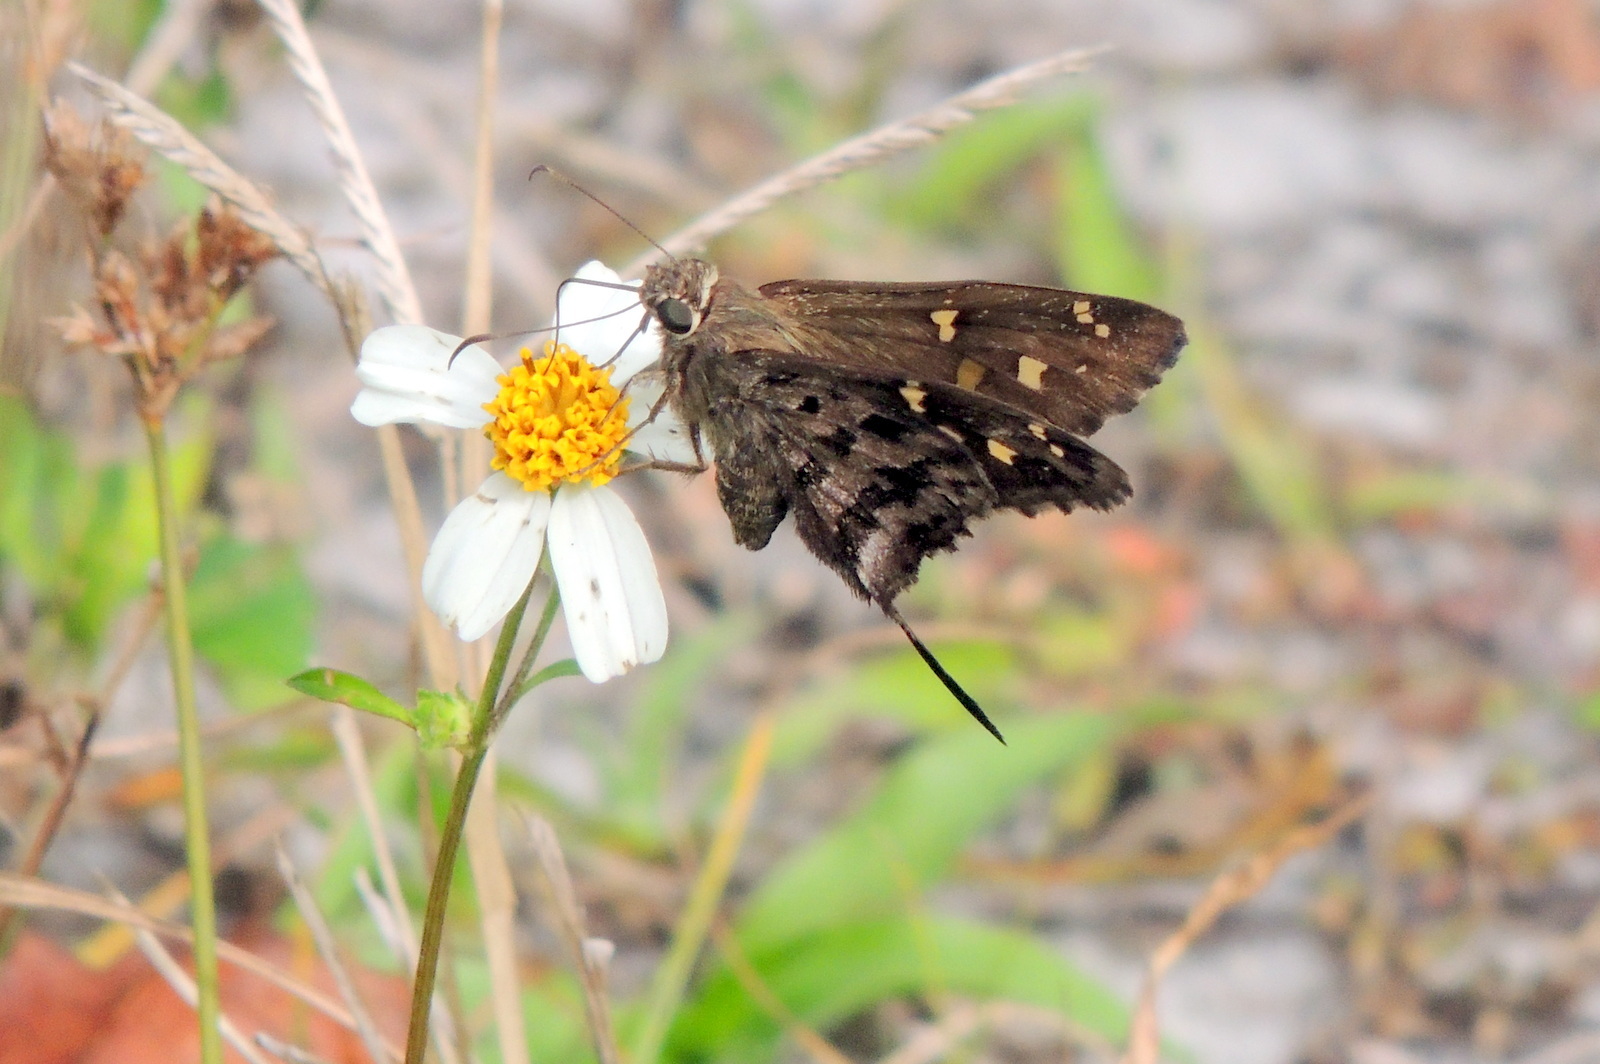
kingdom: Animalia
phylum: Arthropoda
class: Insecta
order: Lepidoptera
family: Hesperiidae
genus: Thorybes
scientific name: Thorybes
